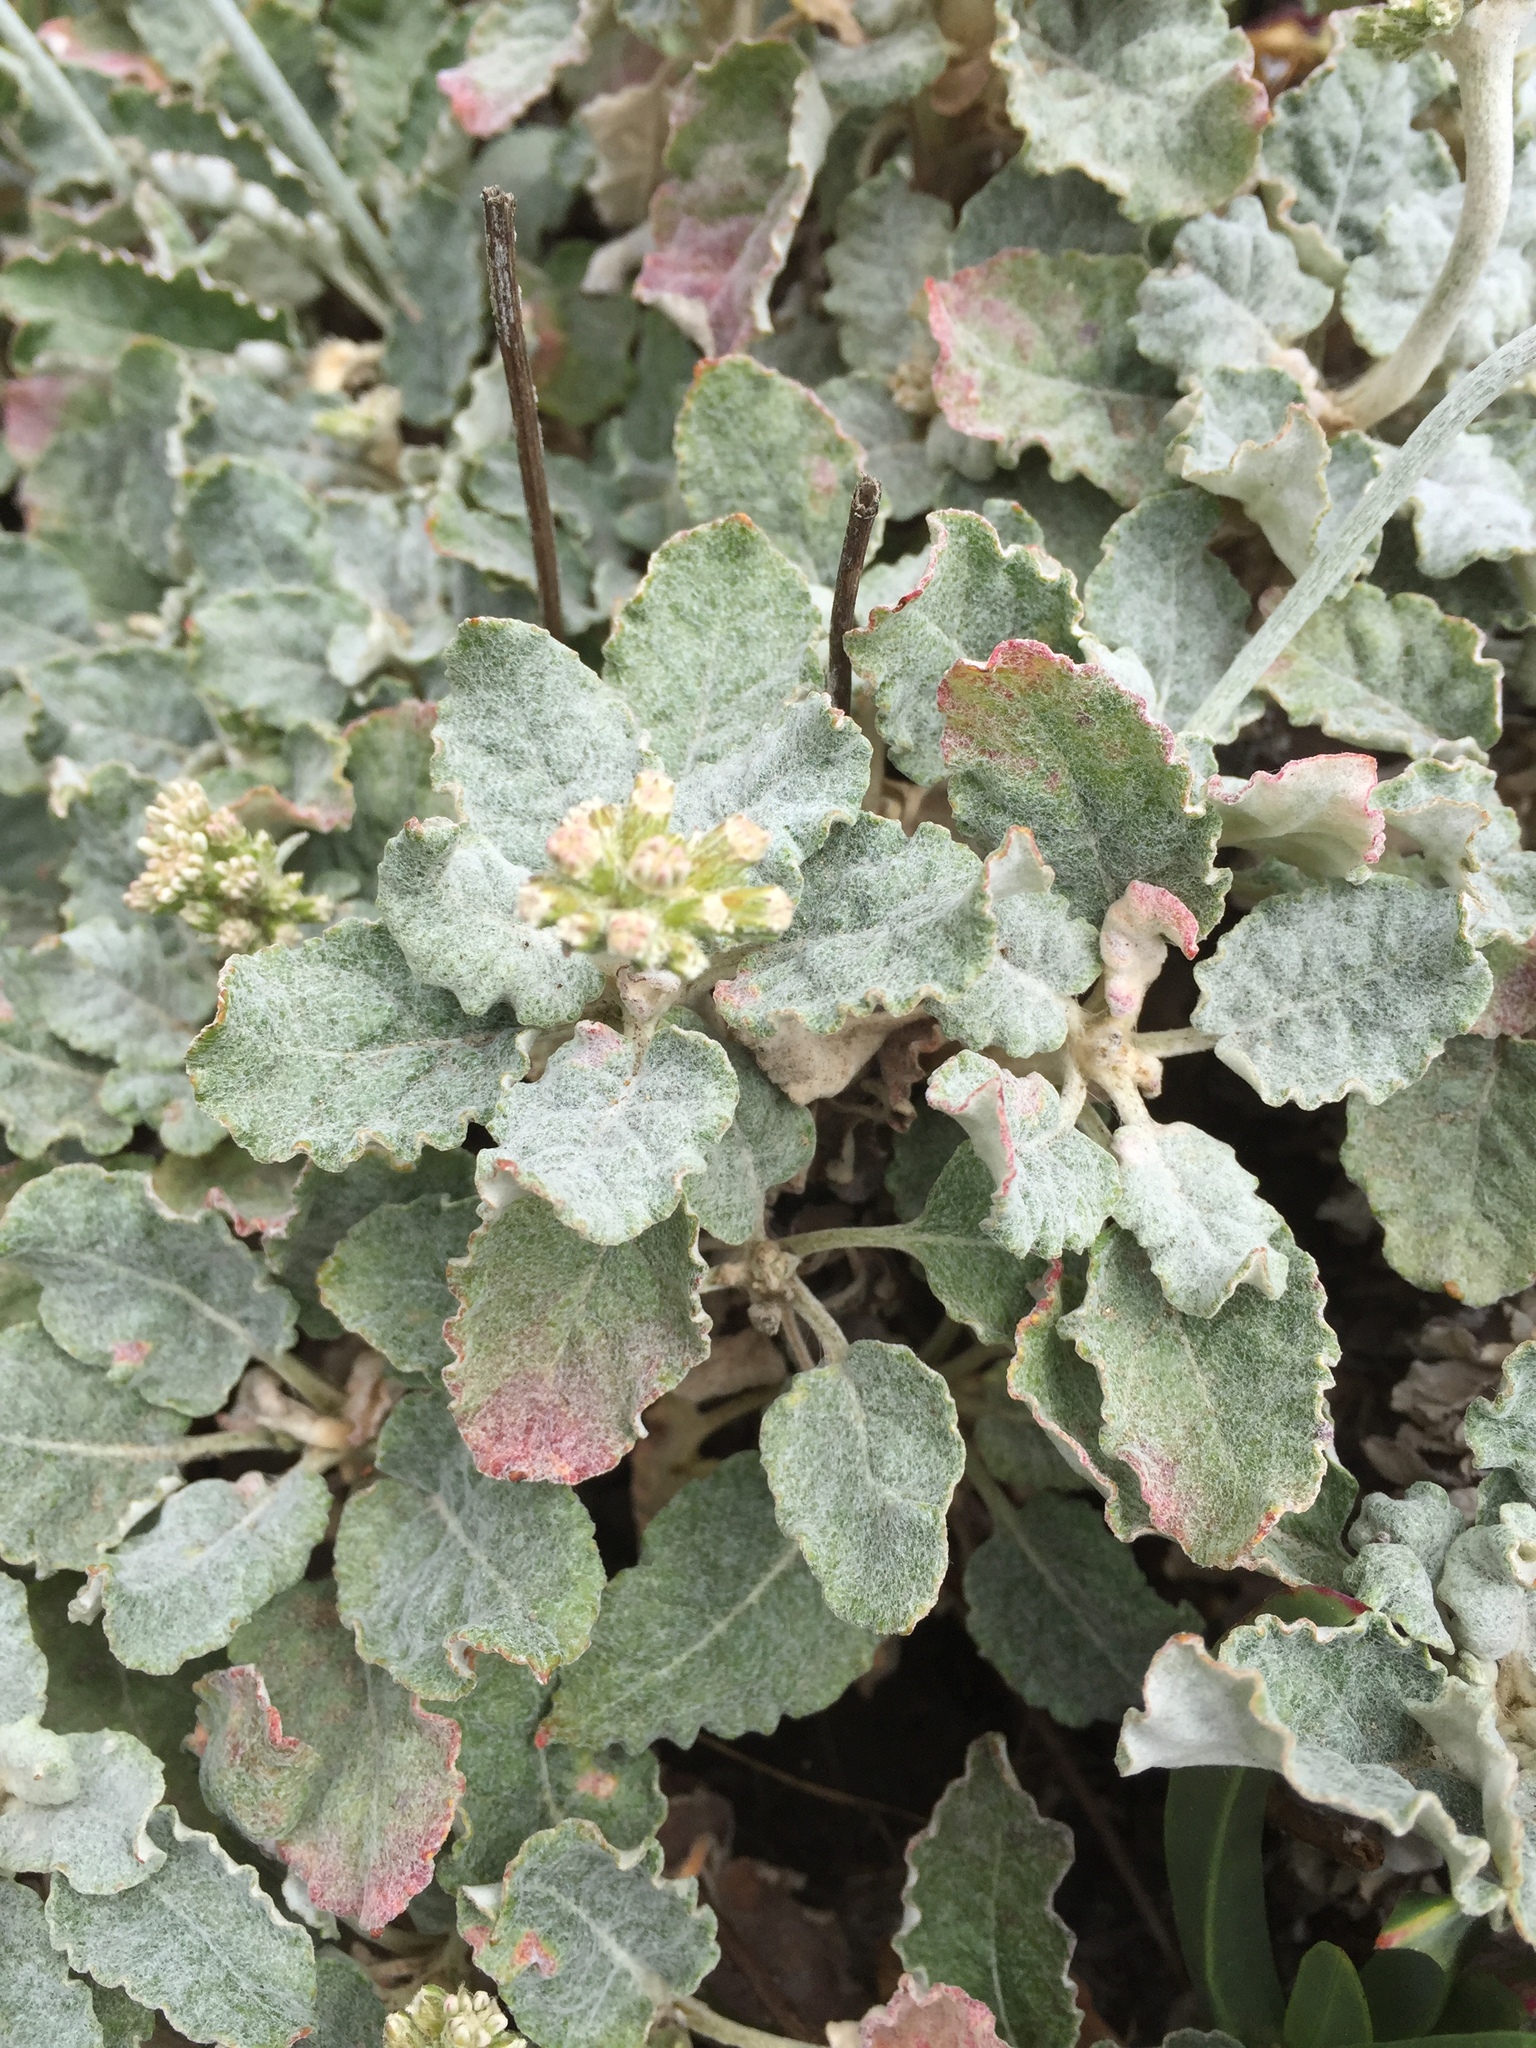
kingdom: Plantae
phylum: Tracheophyta
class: Magnoliopsida
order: Caryophyllales
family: Polygonaceae
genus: Eriogonum
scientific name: Eriogonum latifolium
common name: Seaside wild buckwheat
